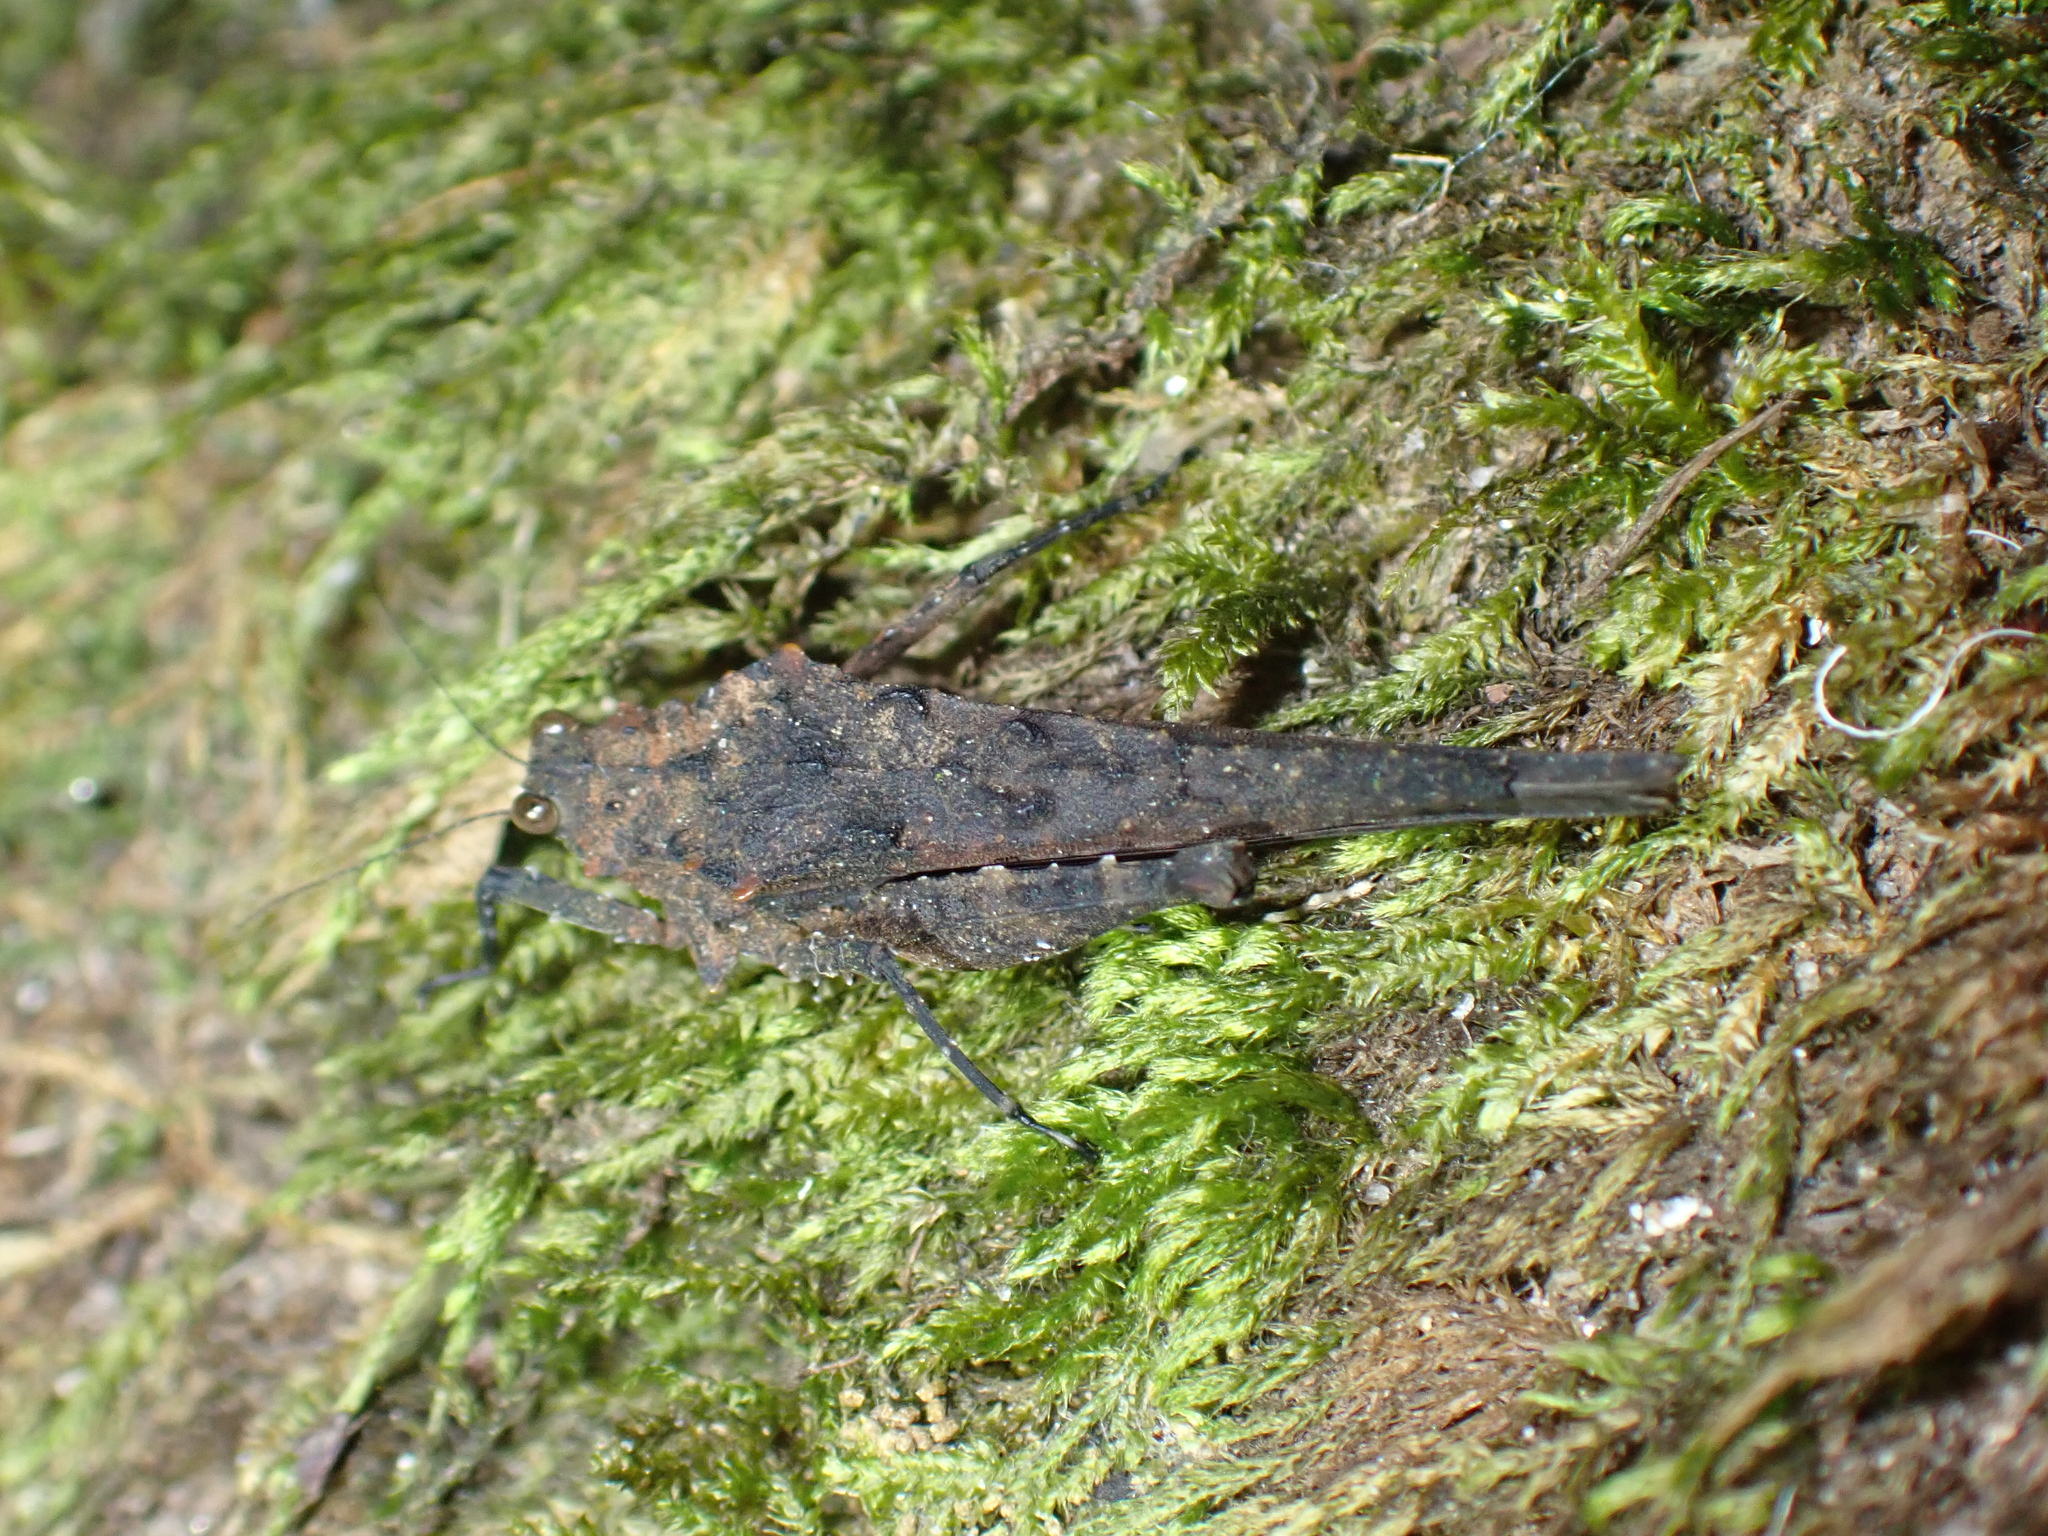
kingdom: Animalia
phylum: Arthropoda
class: Insecta
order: Orthoptera
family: Tetrigidae
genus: Scelimena
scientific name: Scelimena songkrana
